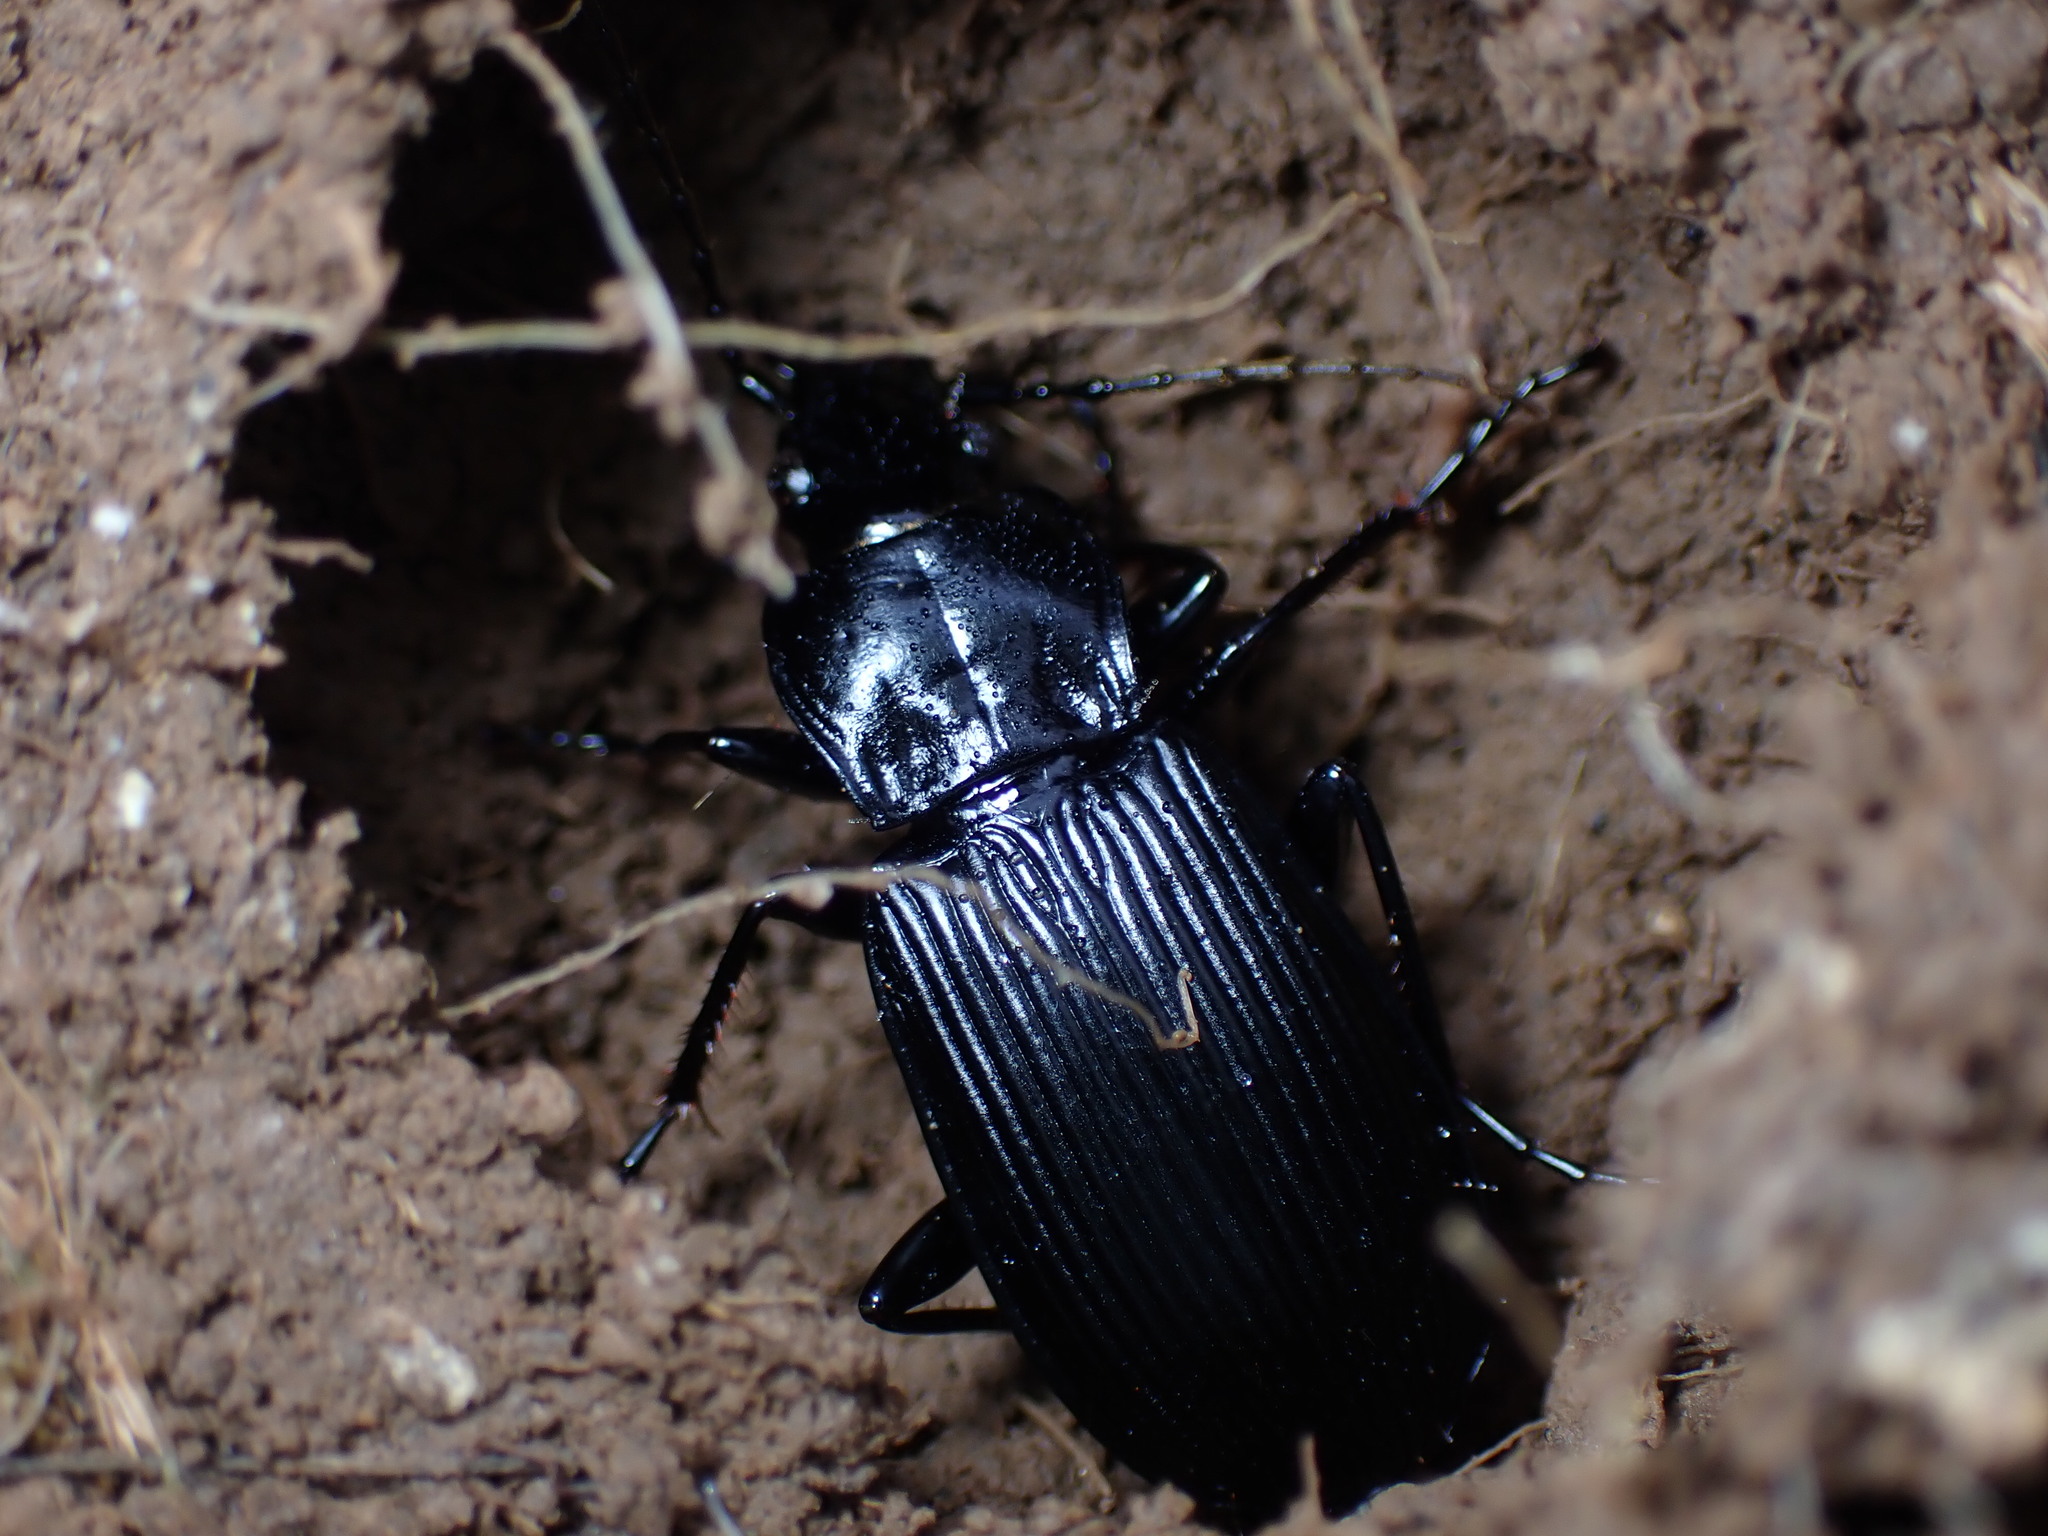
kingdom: Animalia
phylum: Arthropoda
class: Insecta
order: Coleoptera
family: Carabidae
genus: Pterostichus
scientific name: Pterostichus niger
